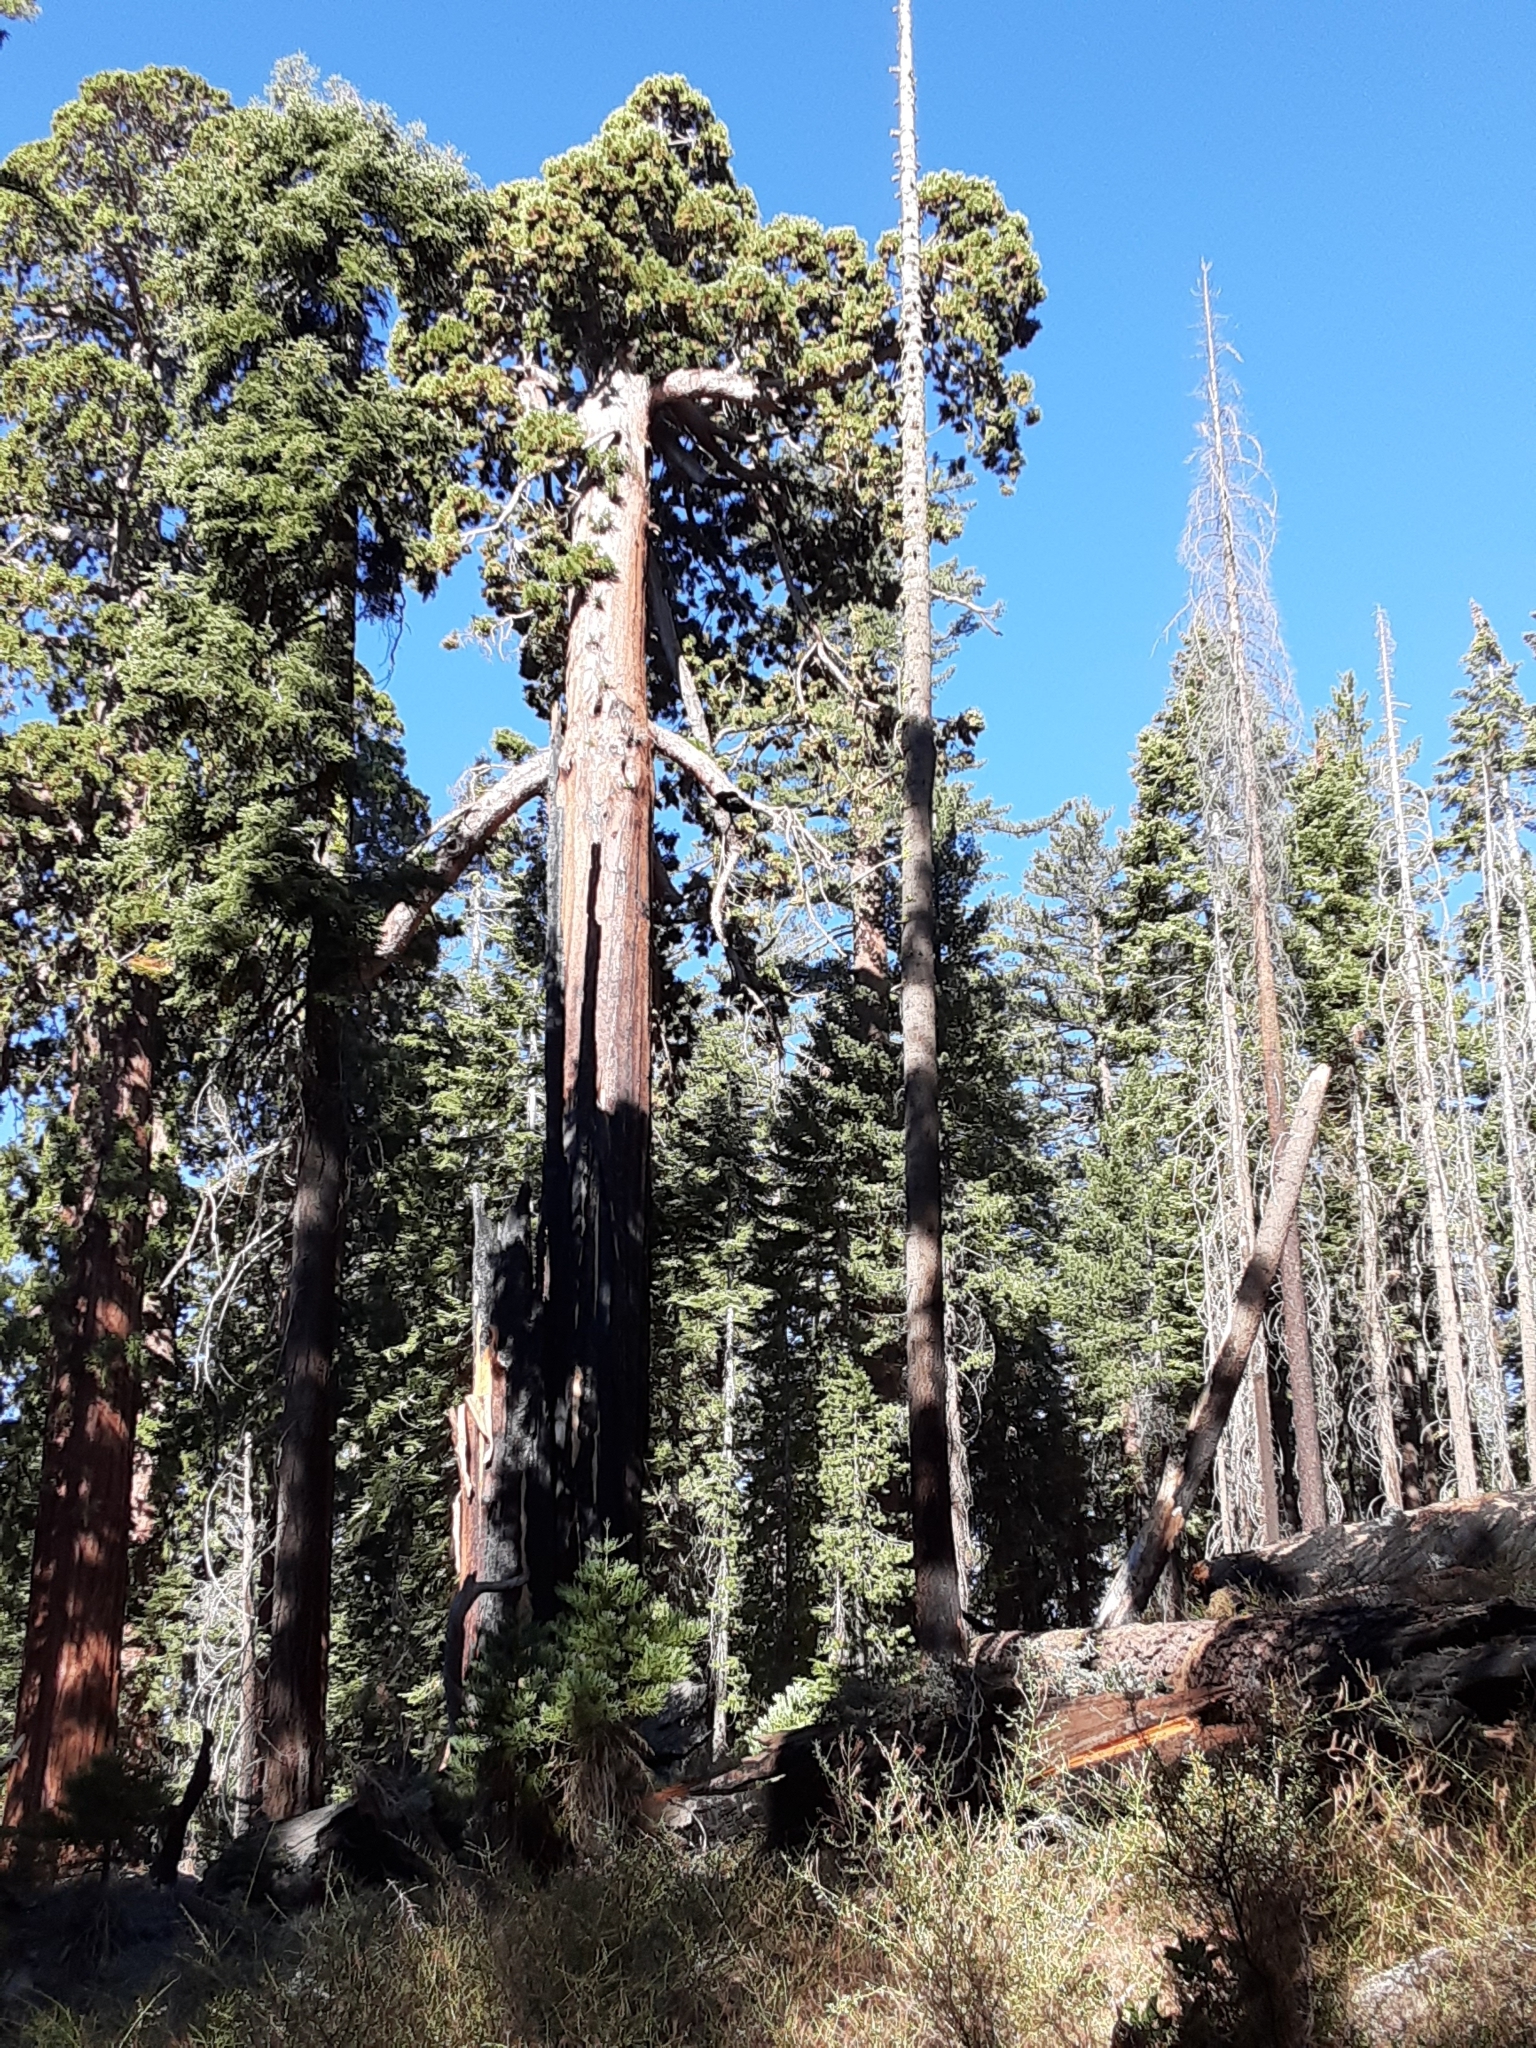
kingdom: Plantae
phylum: Tracheophyta
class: Pinopsida
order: Pinales
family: Cupressaceae
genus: Sequoiadendron
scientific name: Sequoiadendron giganteum
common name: Wellingtonia
